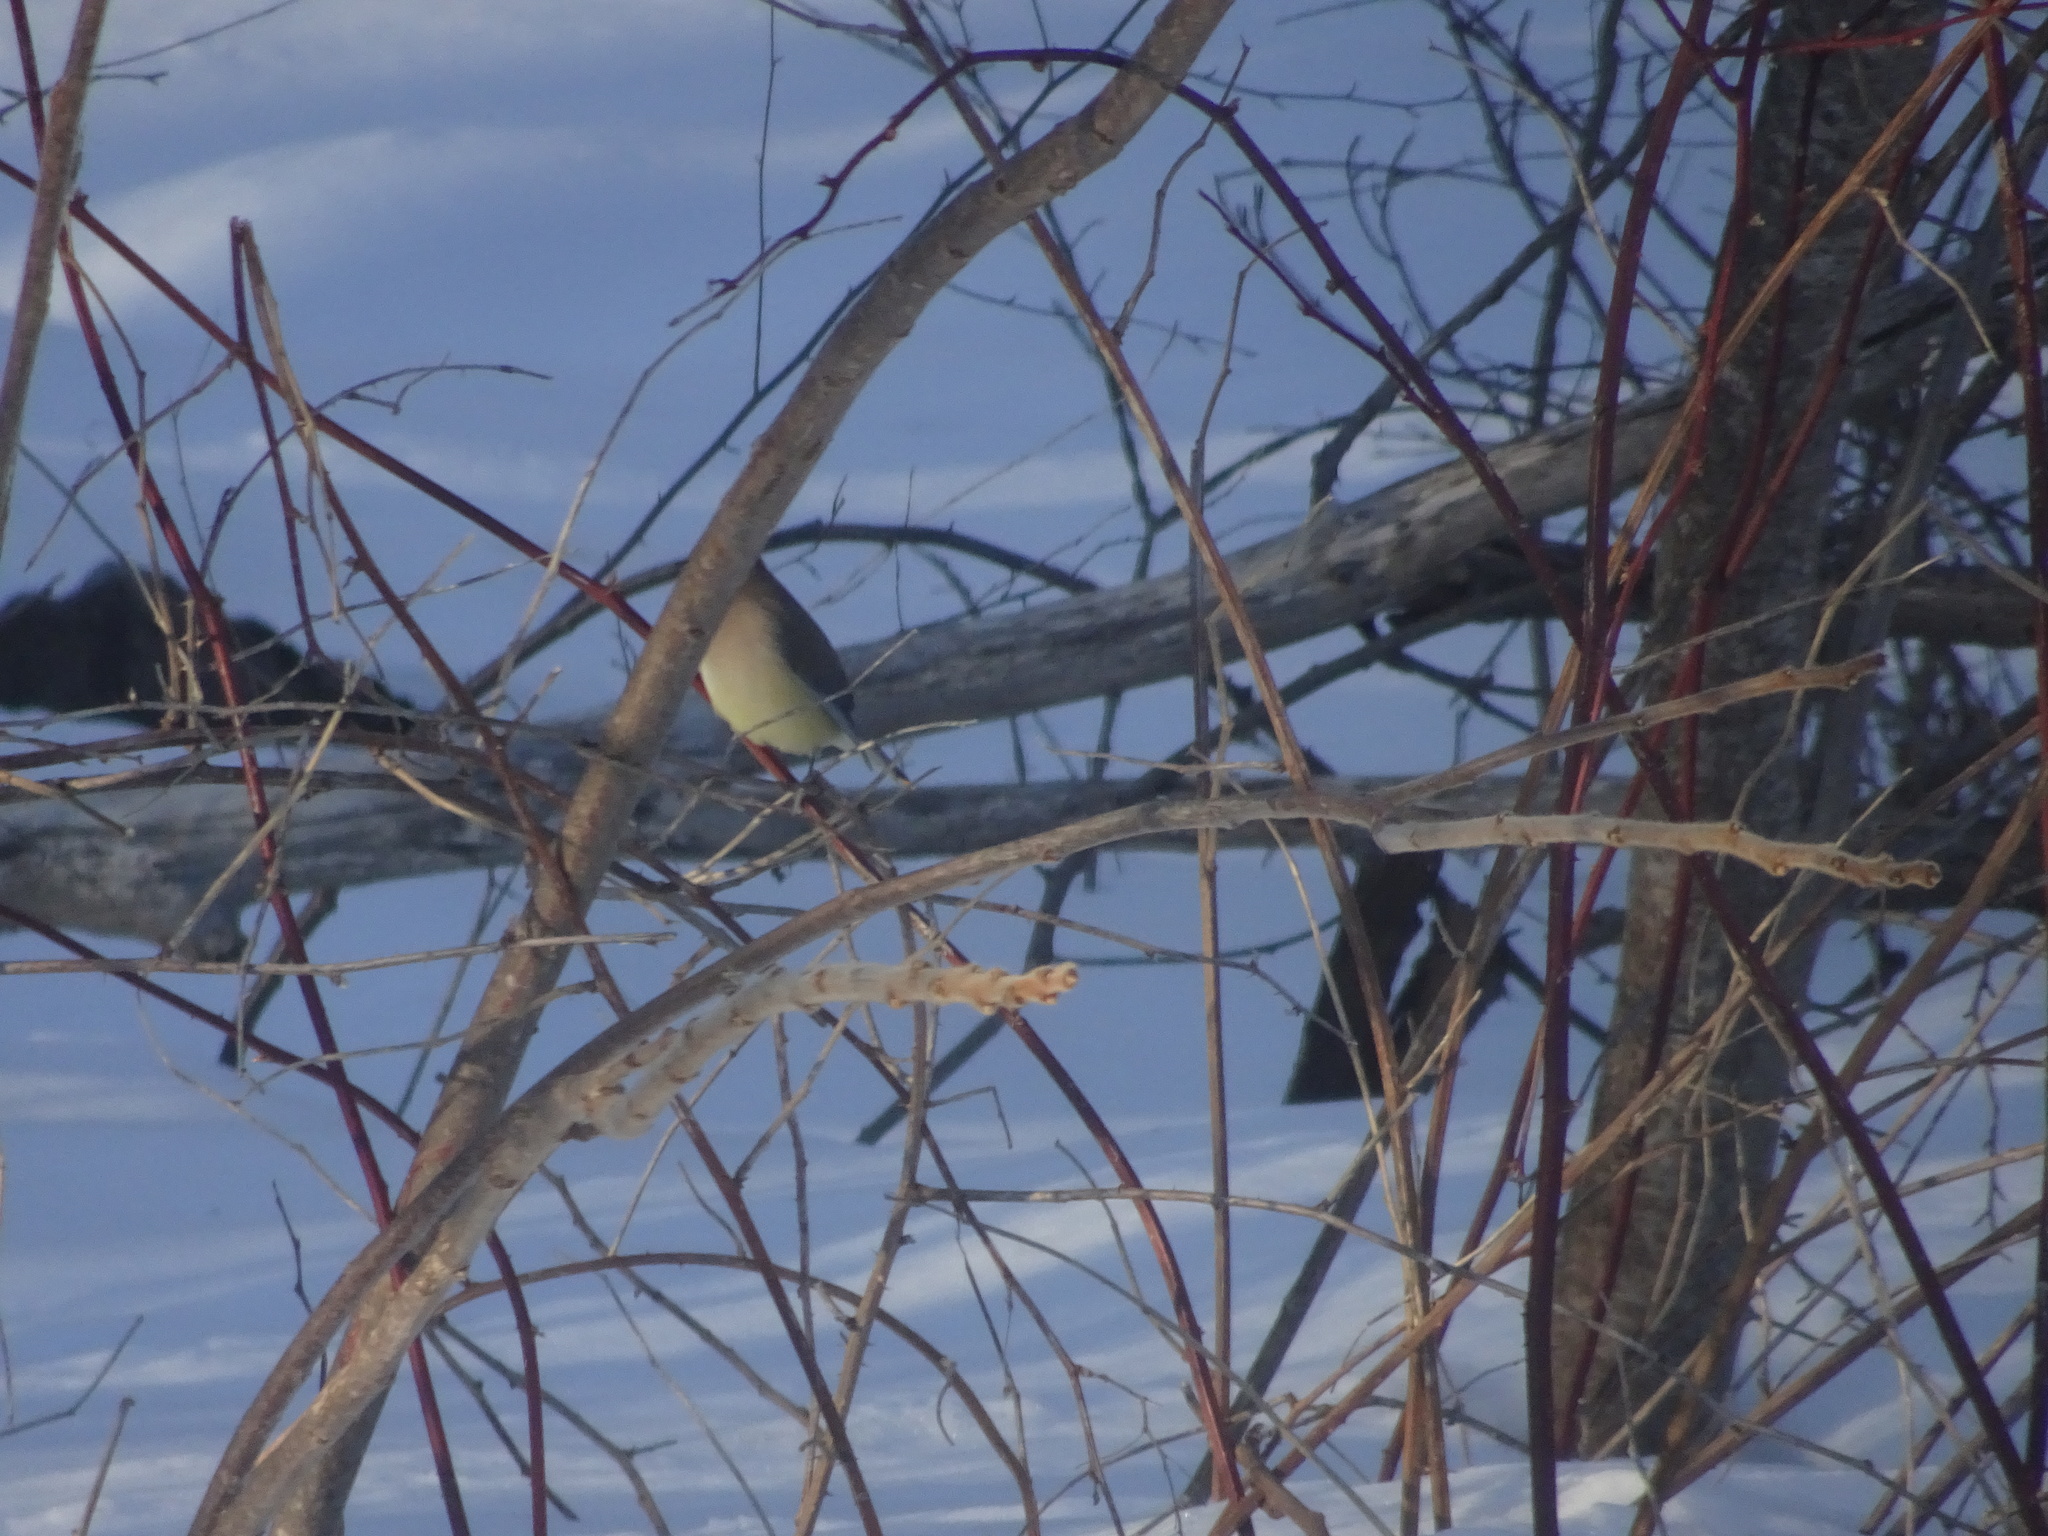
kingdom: Animalia
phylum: Chordata
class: Aves
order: Passeriformes
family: Bombycillidae
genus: Bombycilla
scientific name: Bombycilla cedrorum
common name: Cedar waxwing
